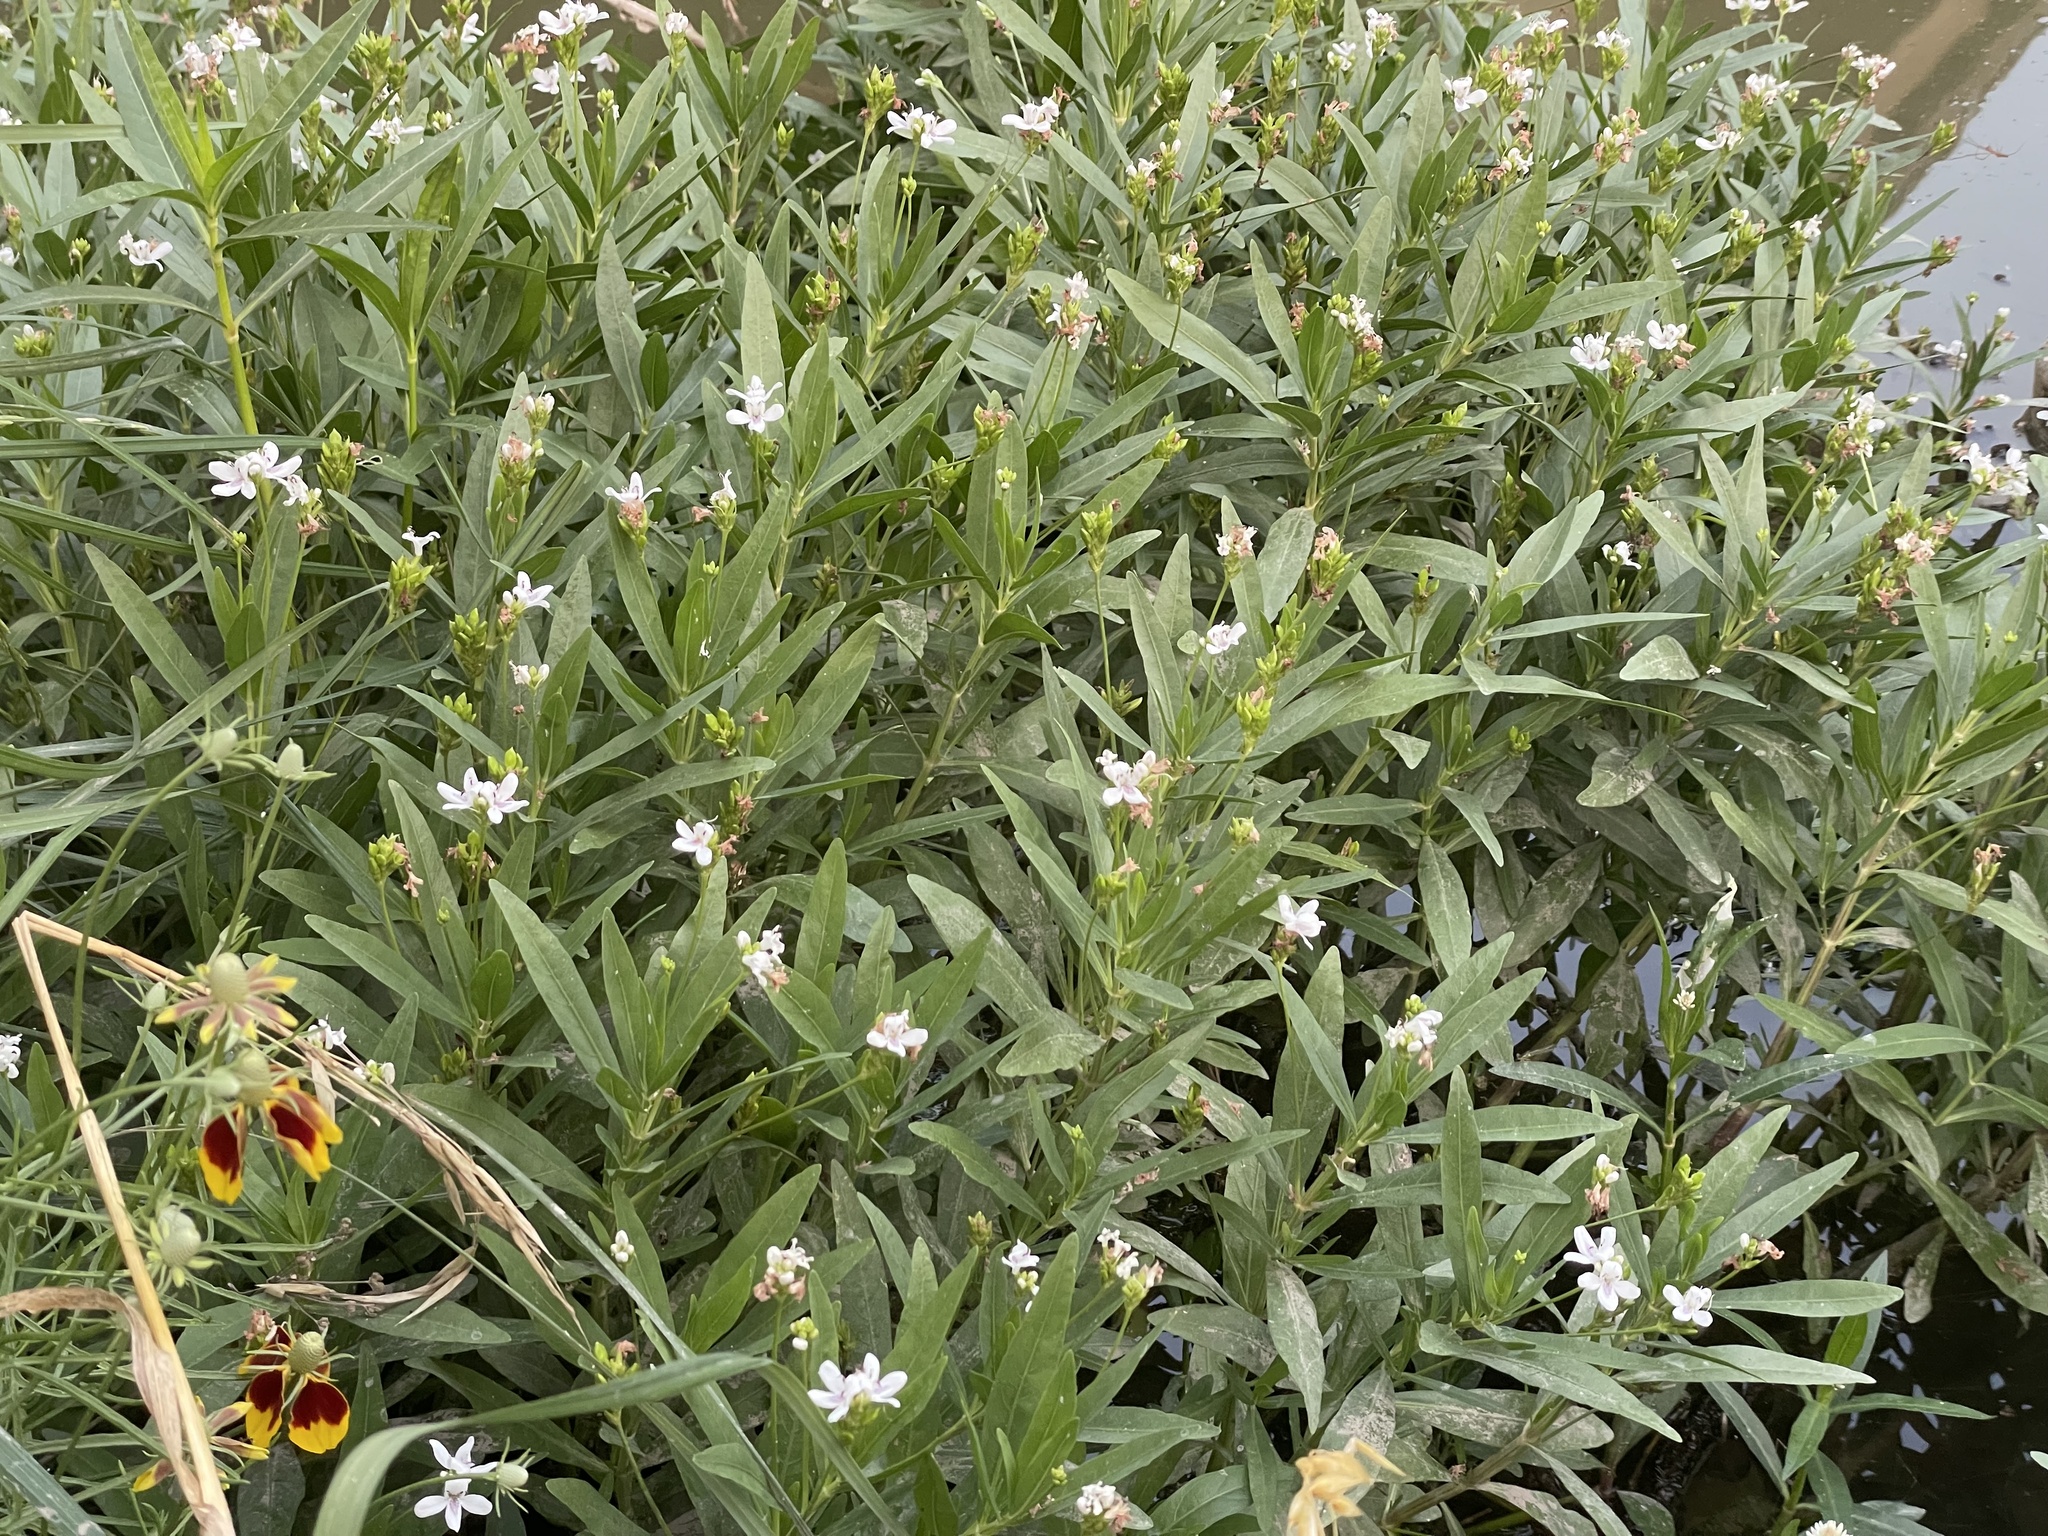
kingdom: Plantae
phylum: Tracheophyta
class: Magnoliopsida
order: Lamiales
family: Acanthaceae
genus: Dianthera
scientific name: Dianthera americana
